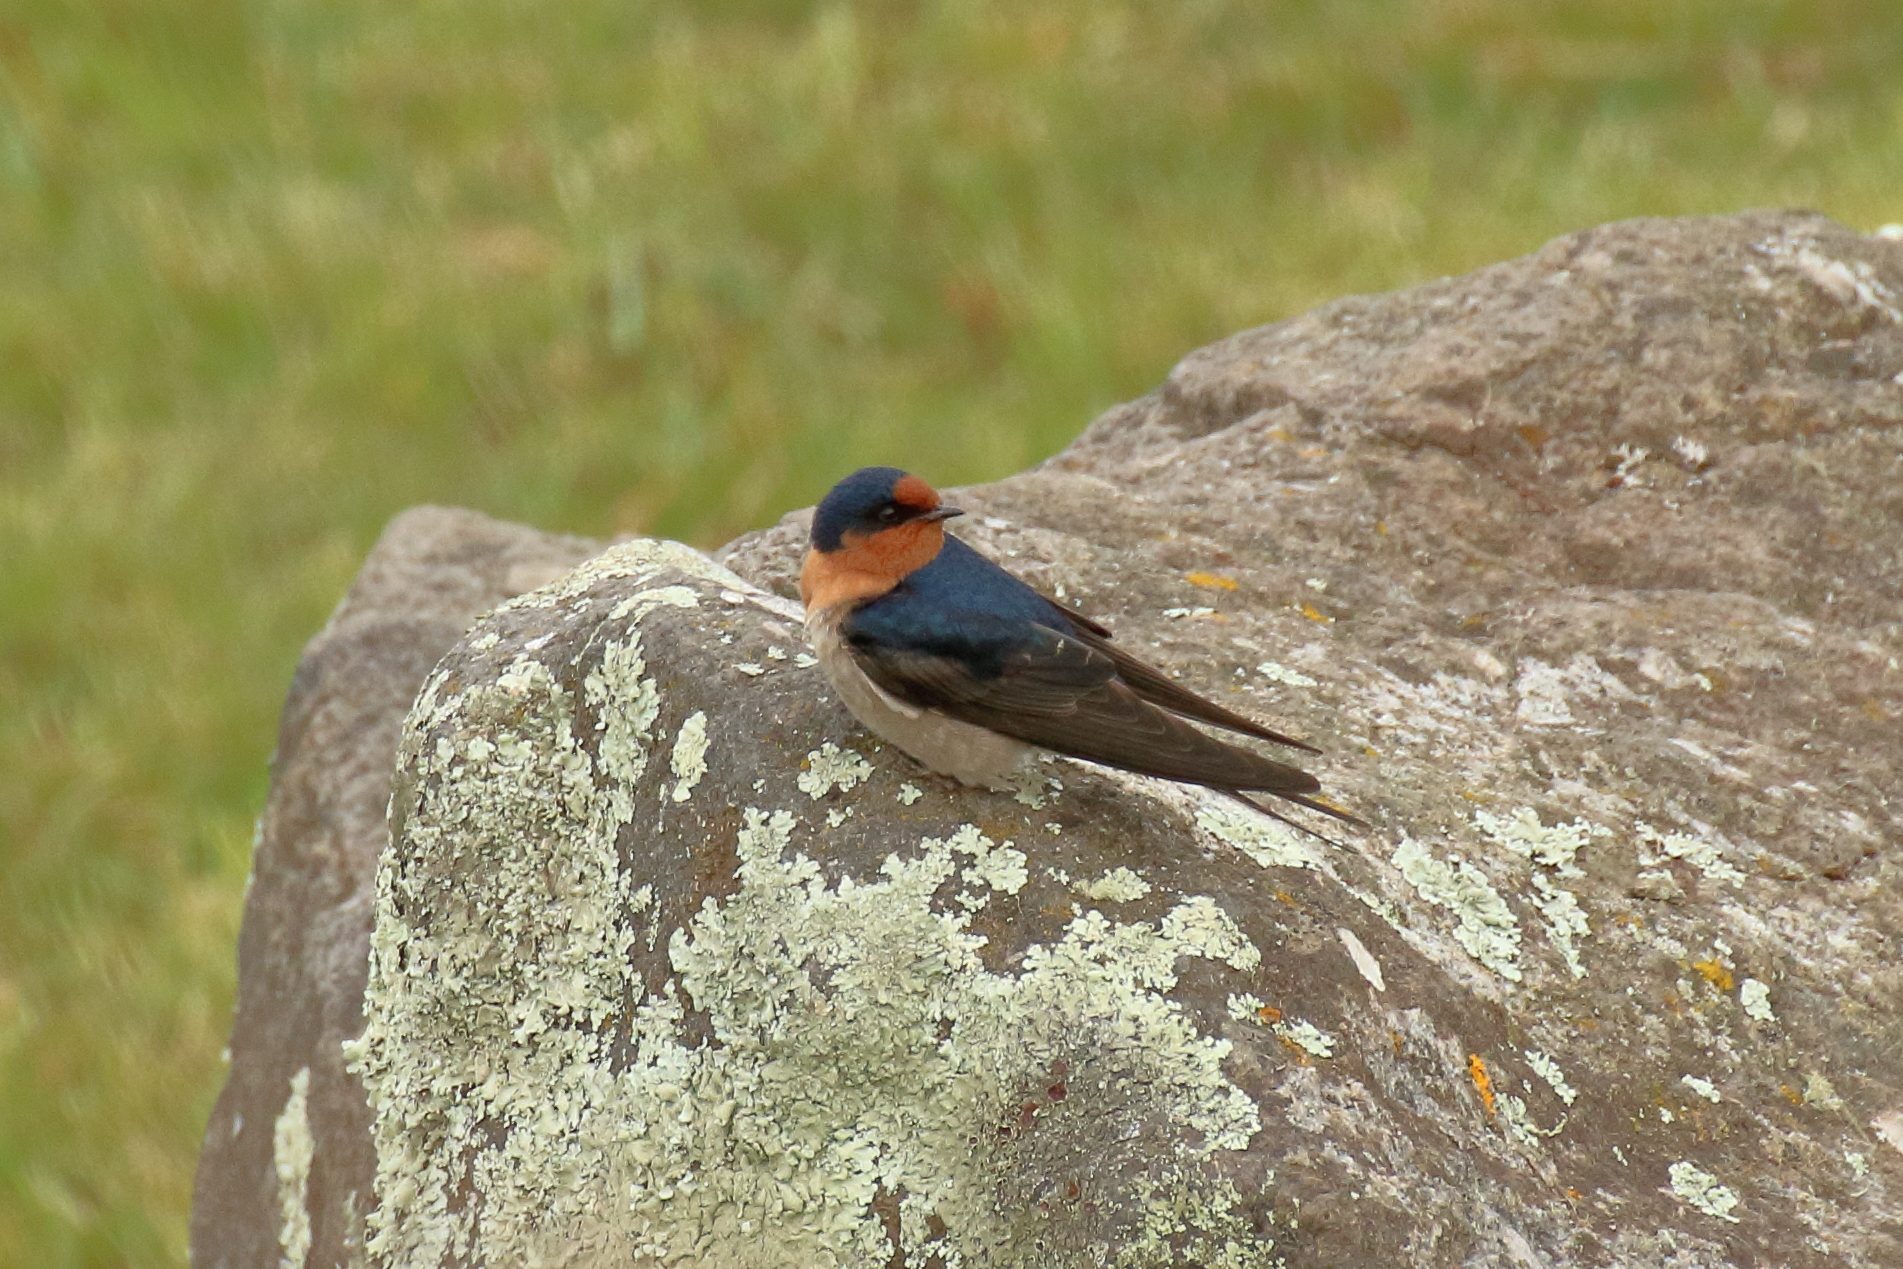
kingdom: Animalia
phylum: Chordata
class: Aves
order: Passeriformes
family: Hirundinidae
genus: Hirundo
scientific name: Hirundo neoxena
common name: Welcome swallow
